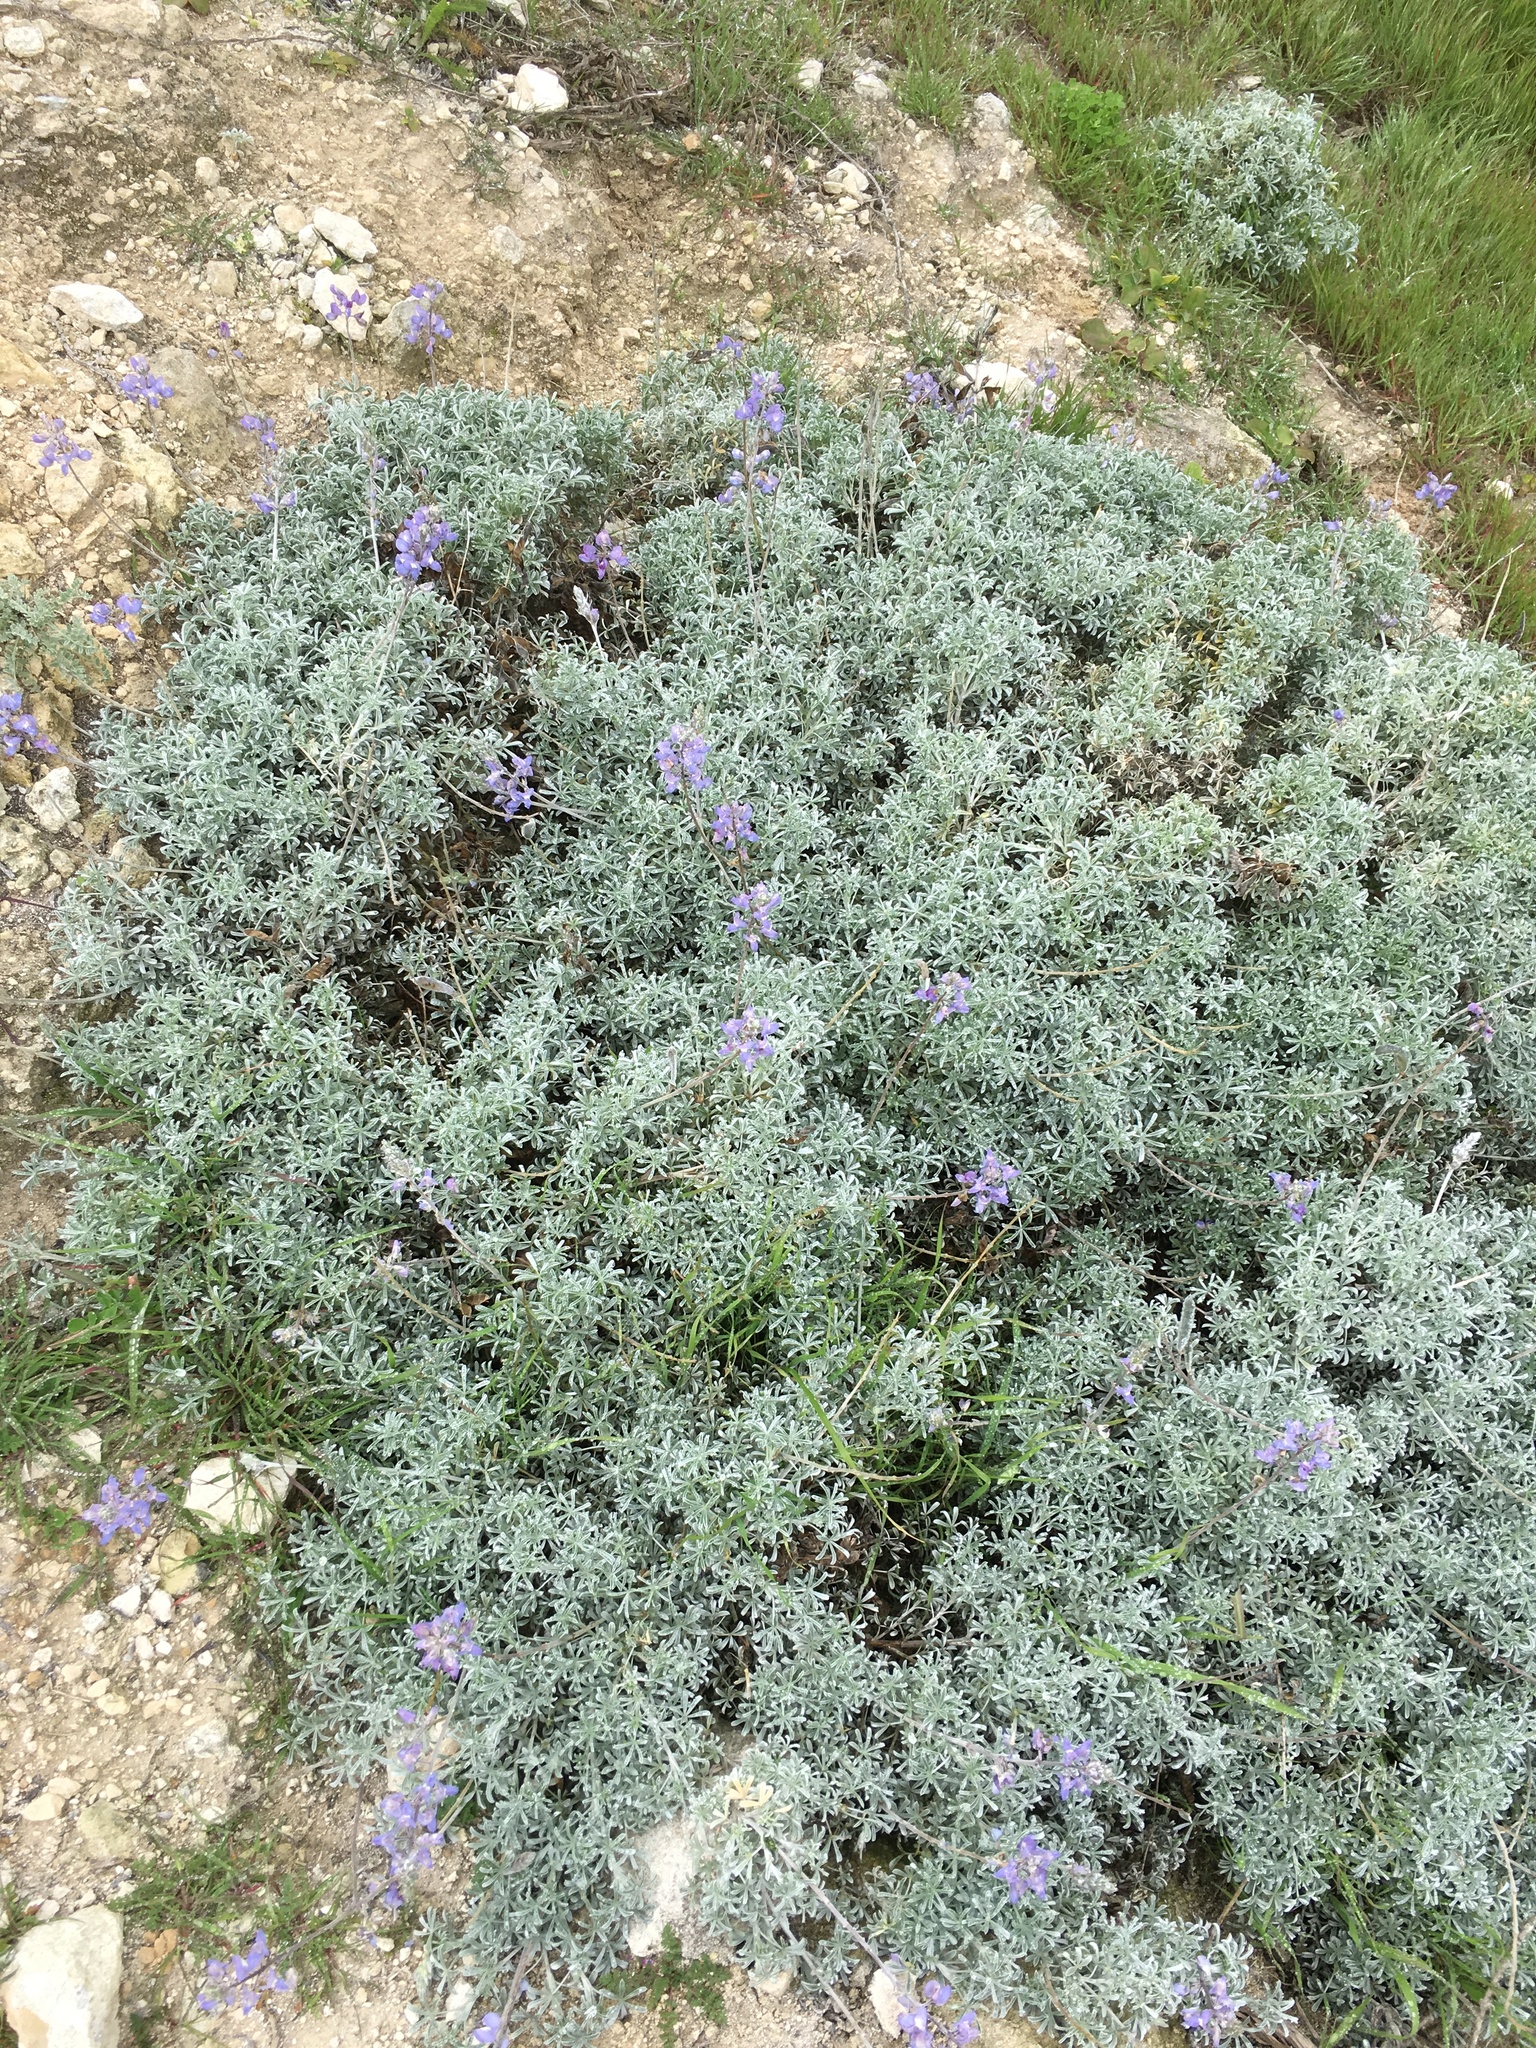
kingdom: Plantae
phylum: Tracheophyta
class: Magnoliopsida
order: Fabales
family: Fabaceae
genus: Lupinus
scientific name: Lupinus albifrons
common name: Foothill lupine
